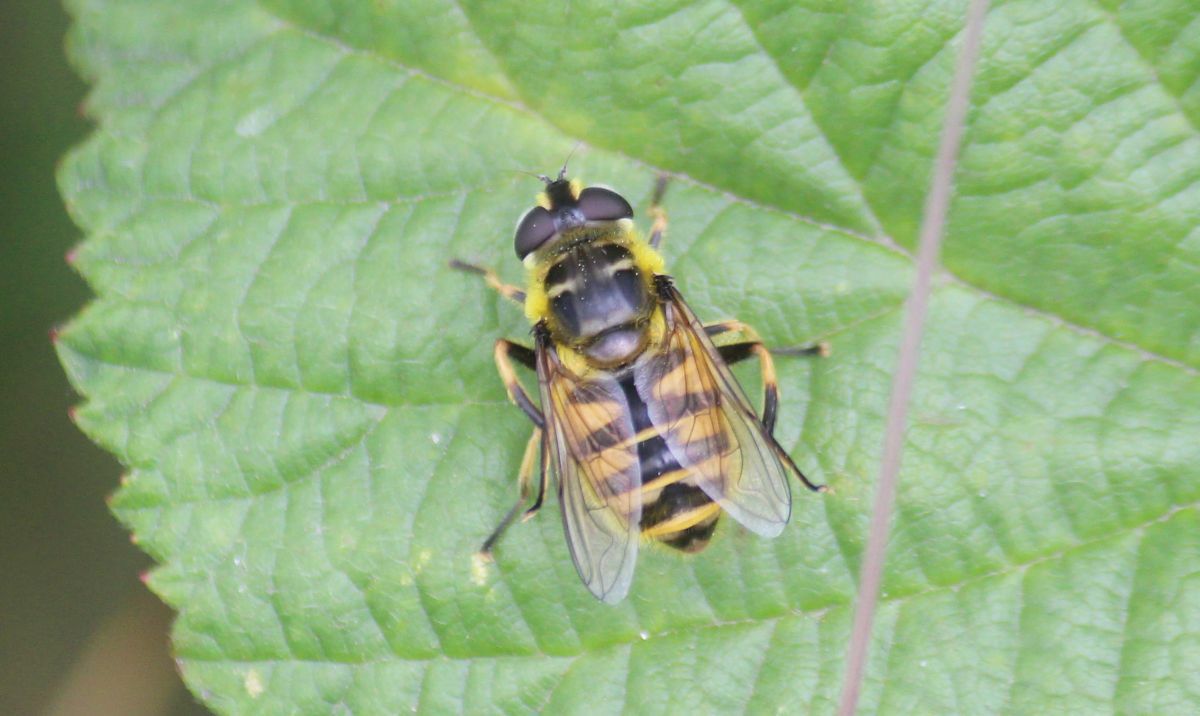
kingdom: Animalia
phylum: Arthropoda
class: Insecta
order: Diptera
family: Syrphidae
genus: Myathropa
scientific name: Myathropa florea
